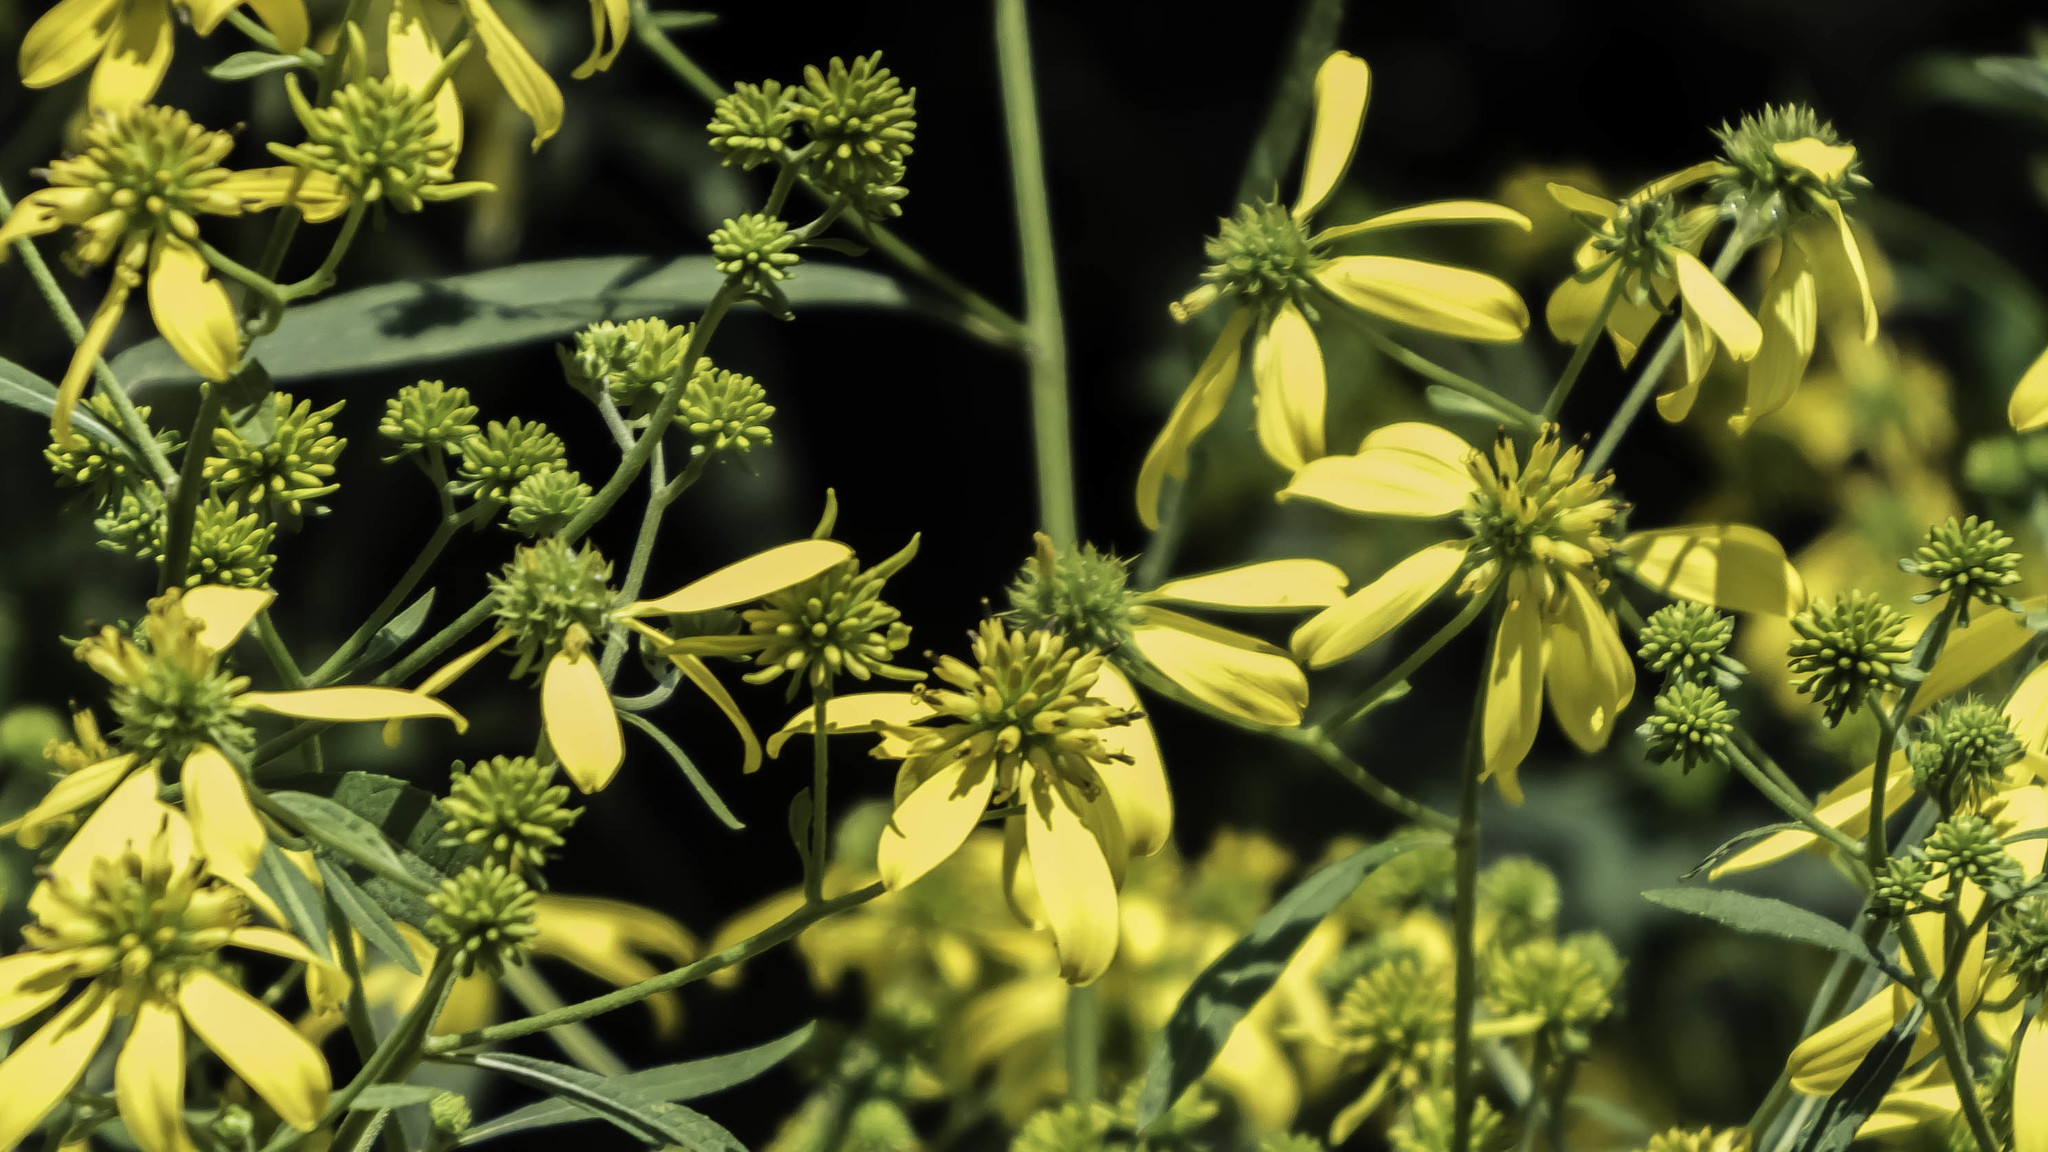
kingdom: Plantae
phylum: Tracheophyta
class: Magnoliopsida
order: Asterales
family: Asteraceae
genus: Verbesina
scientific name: Verbesina alternifolia
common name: Wingstem
